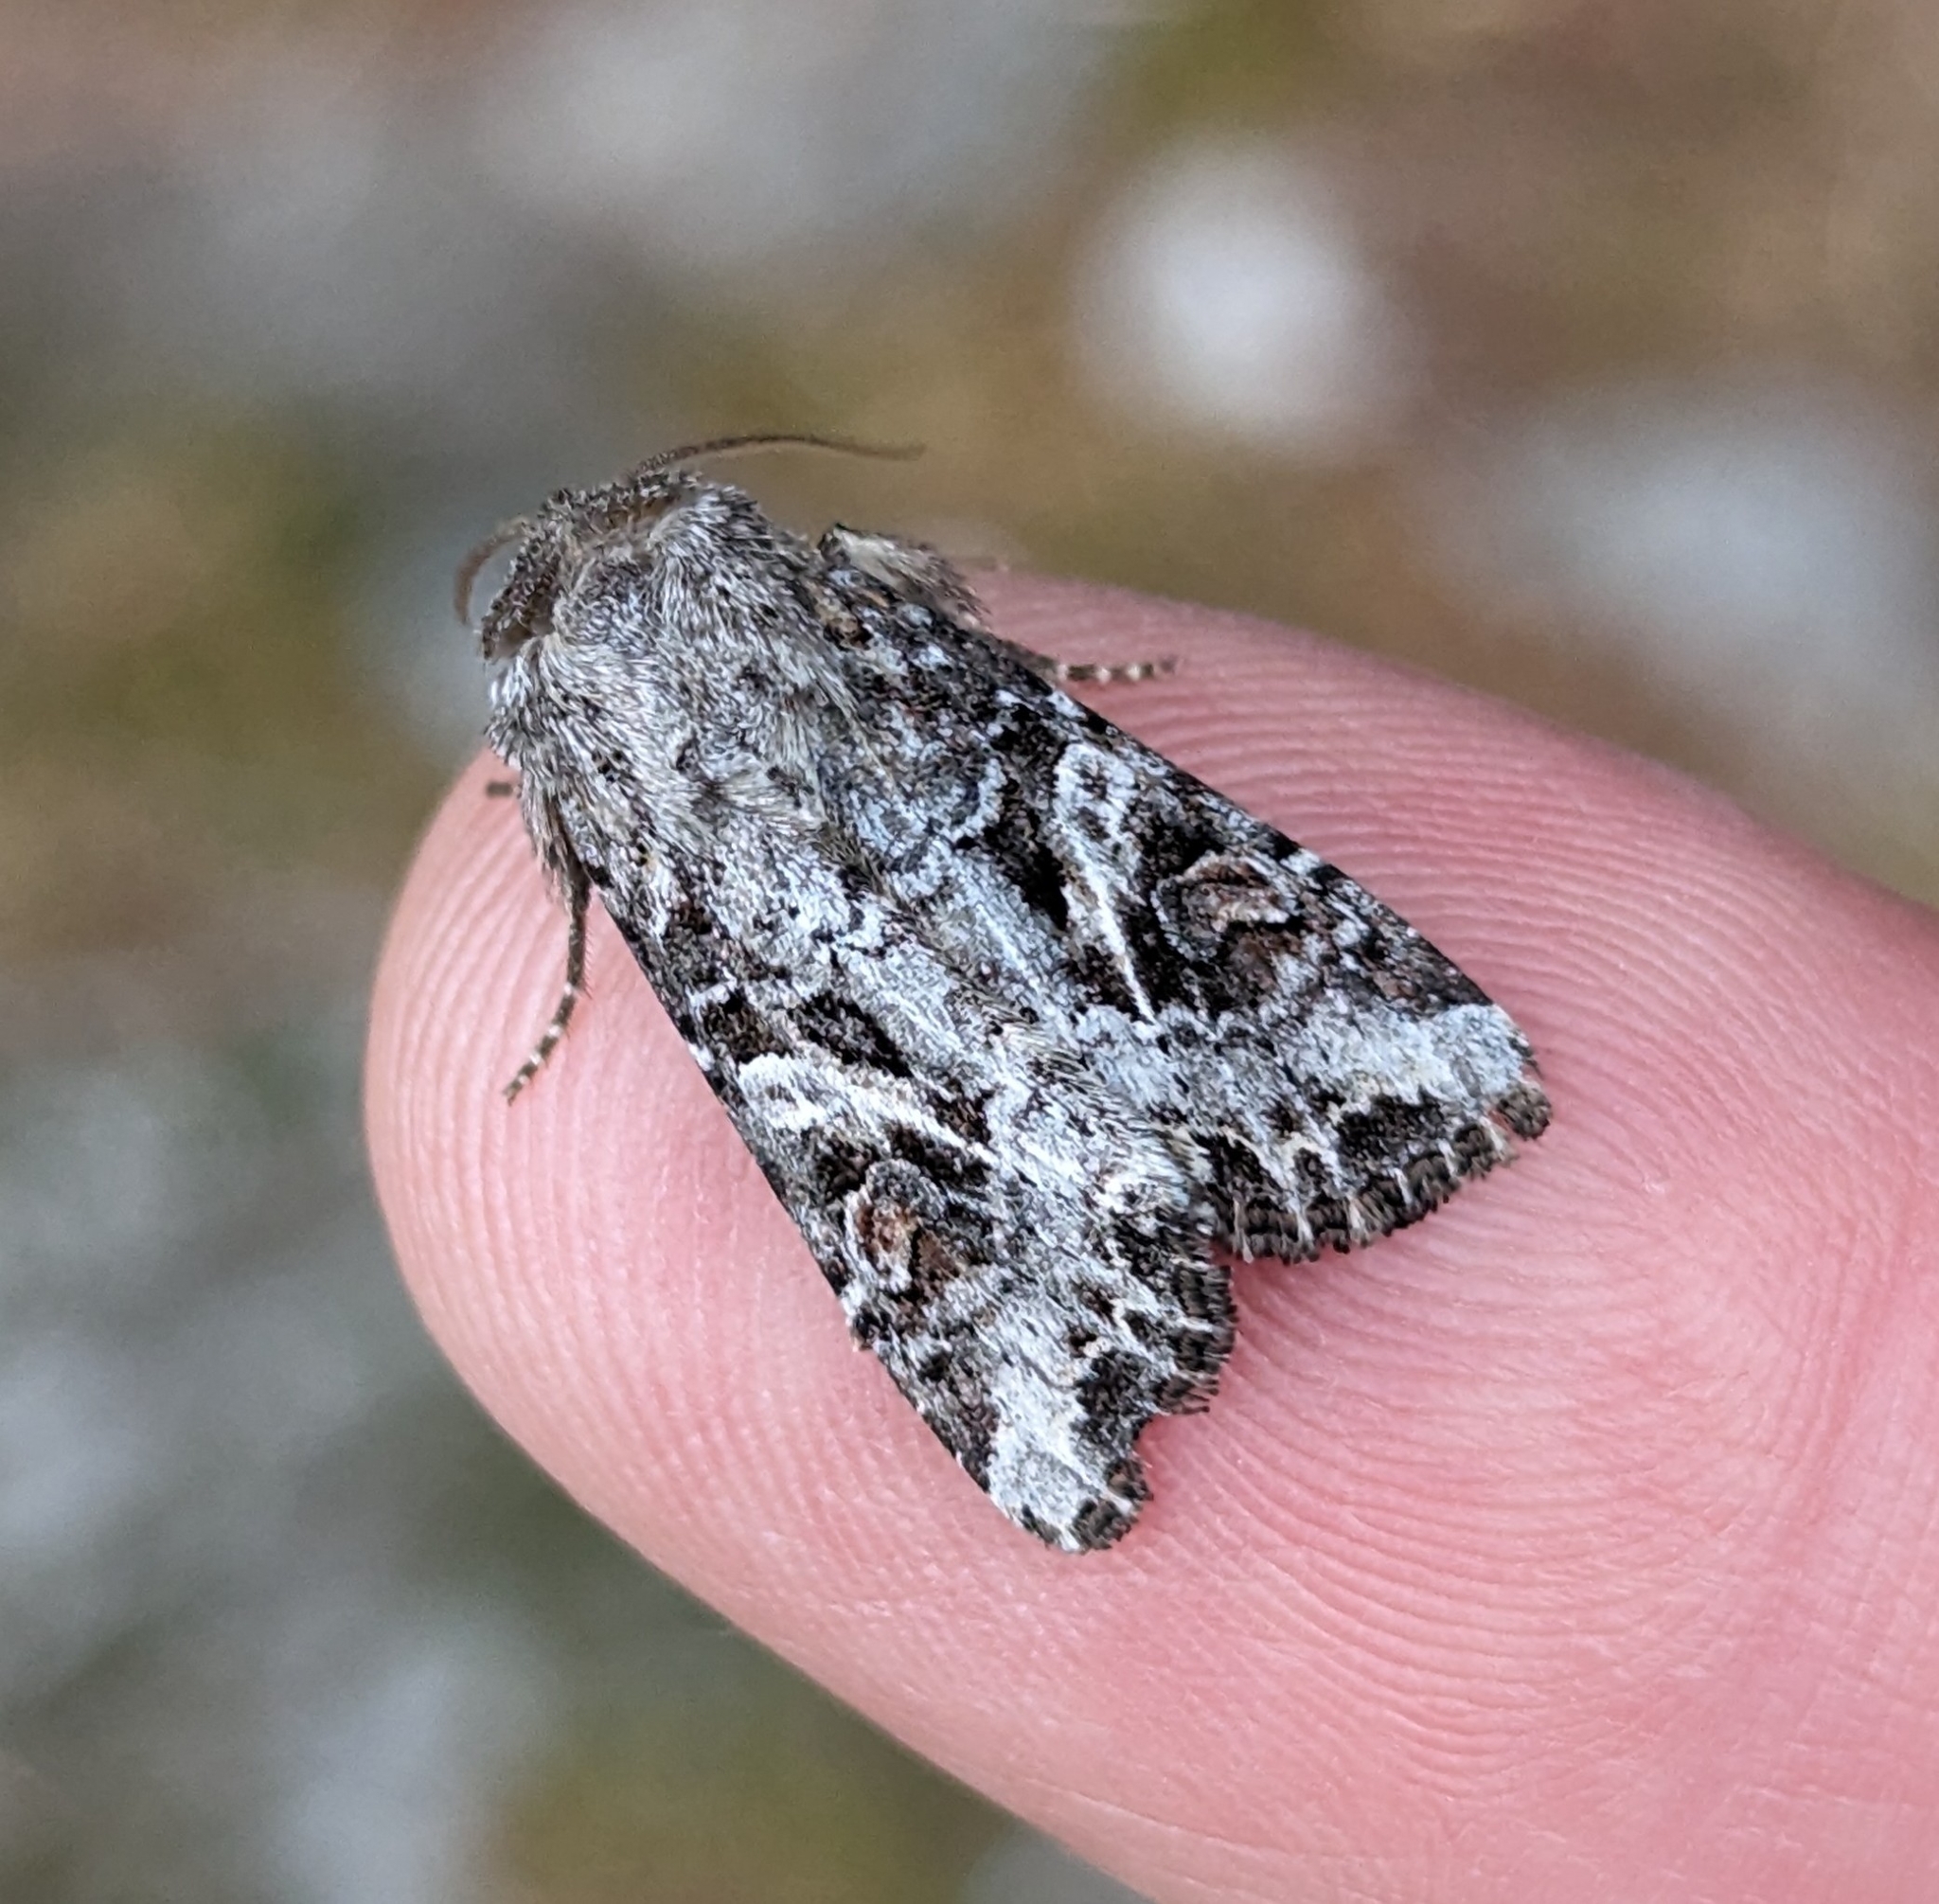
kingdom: Animalia
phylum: Arthropoda
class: Insecta
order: Lepidoptera
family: Noctuidae
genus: Trichordestra
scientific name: Trichordestra liquida
